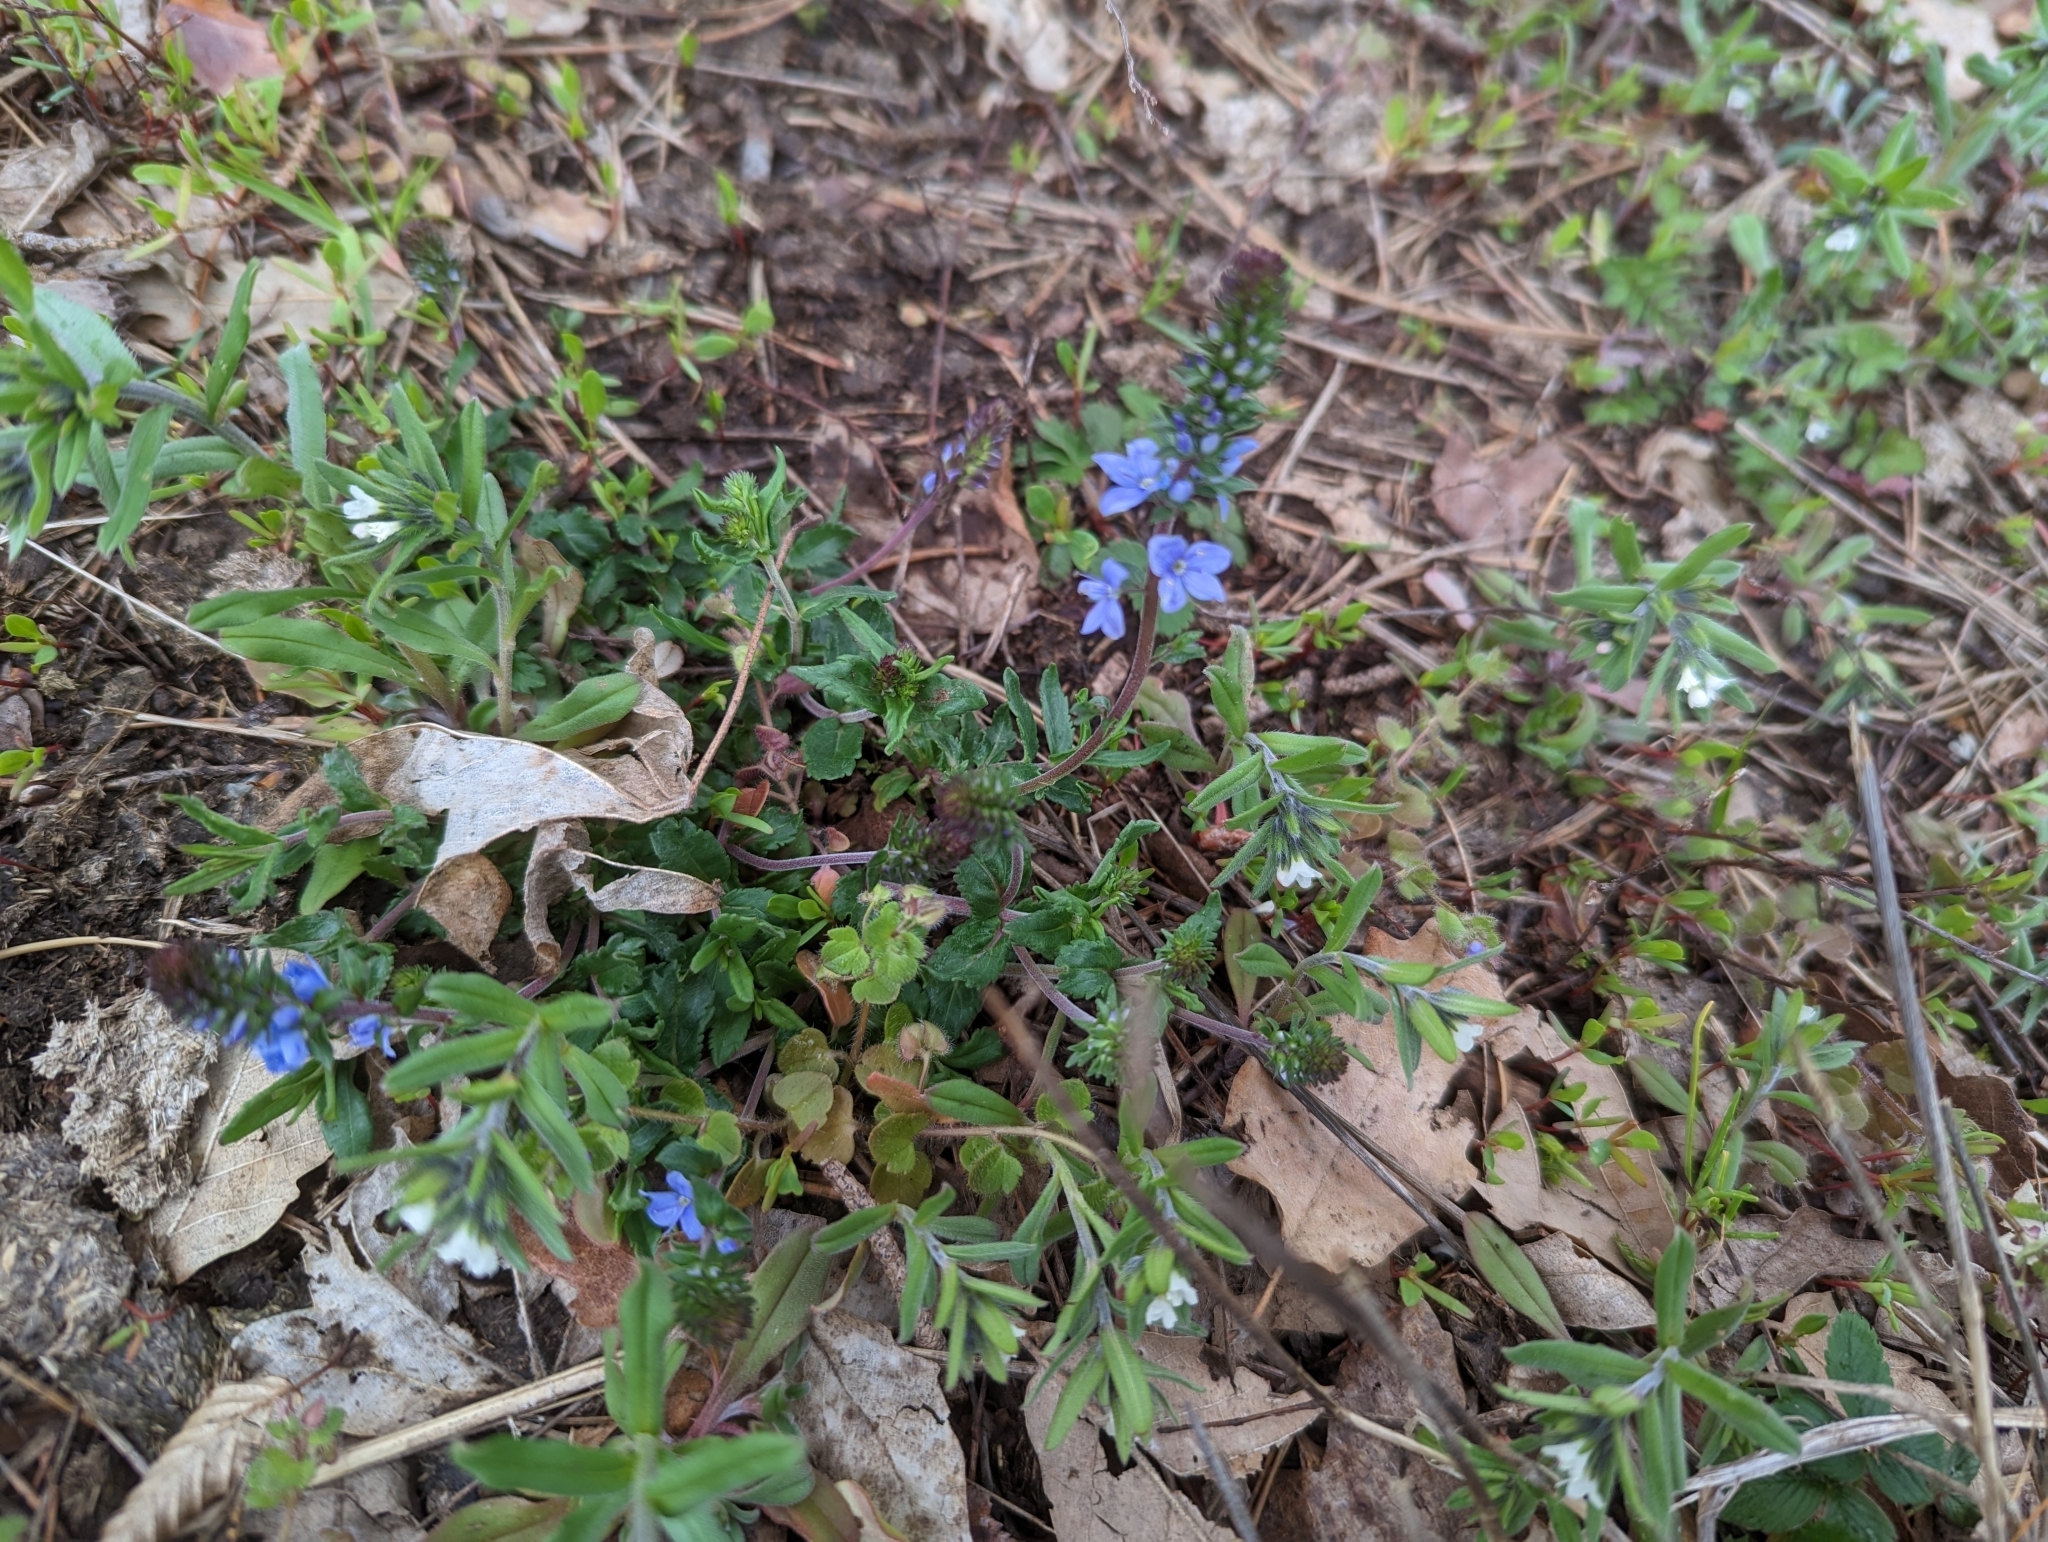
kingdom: Plantae
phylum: Tracheophyta
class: Magnoliopsida
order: Lamiales
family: Plantaginaceae
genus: Veronica
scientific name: Veronica prostrata
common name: Prostrate speedwell
